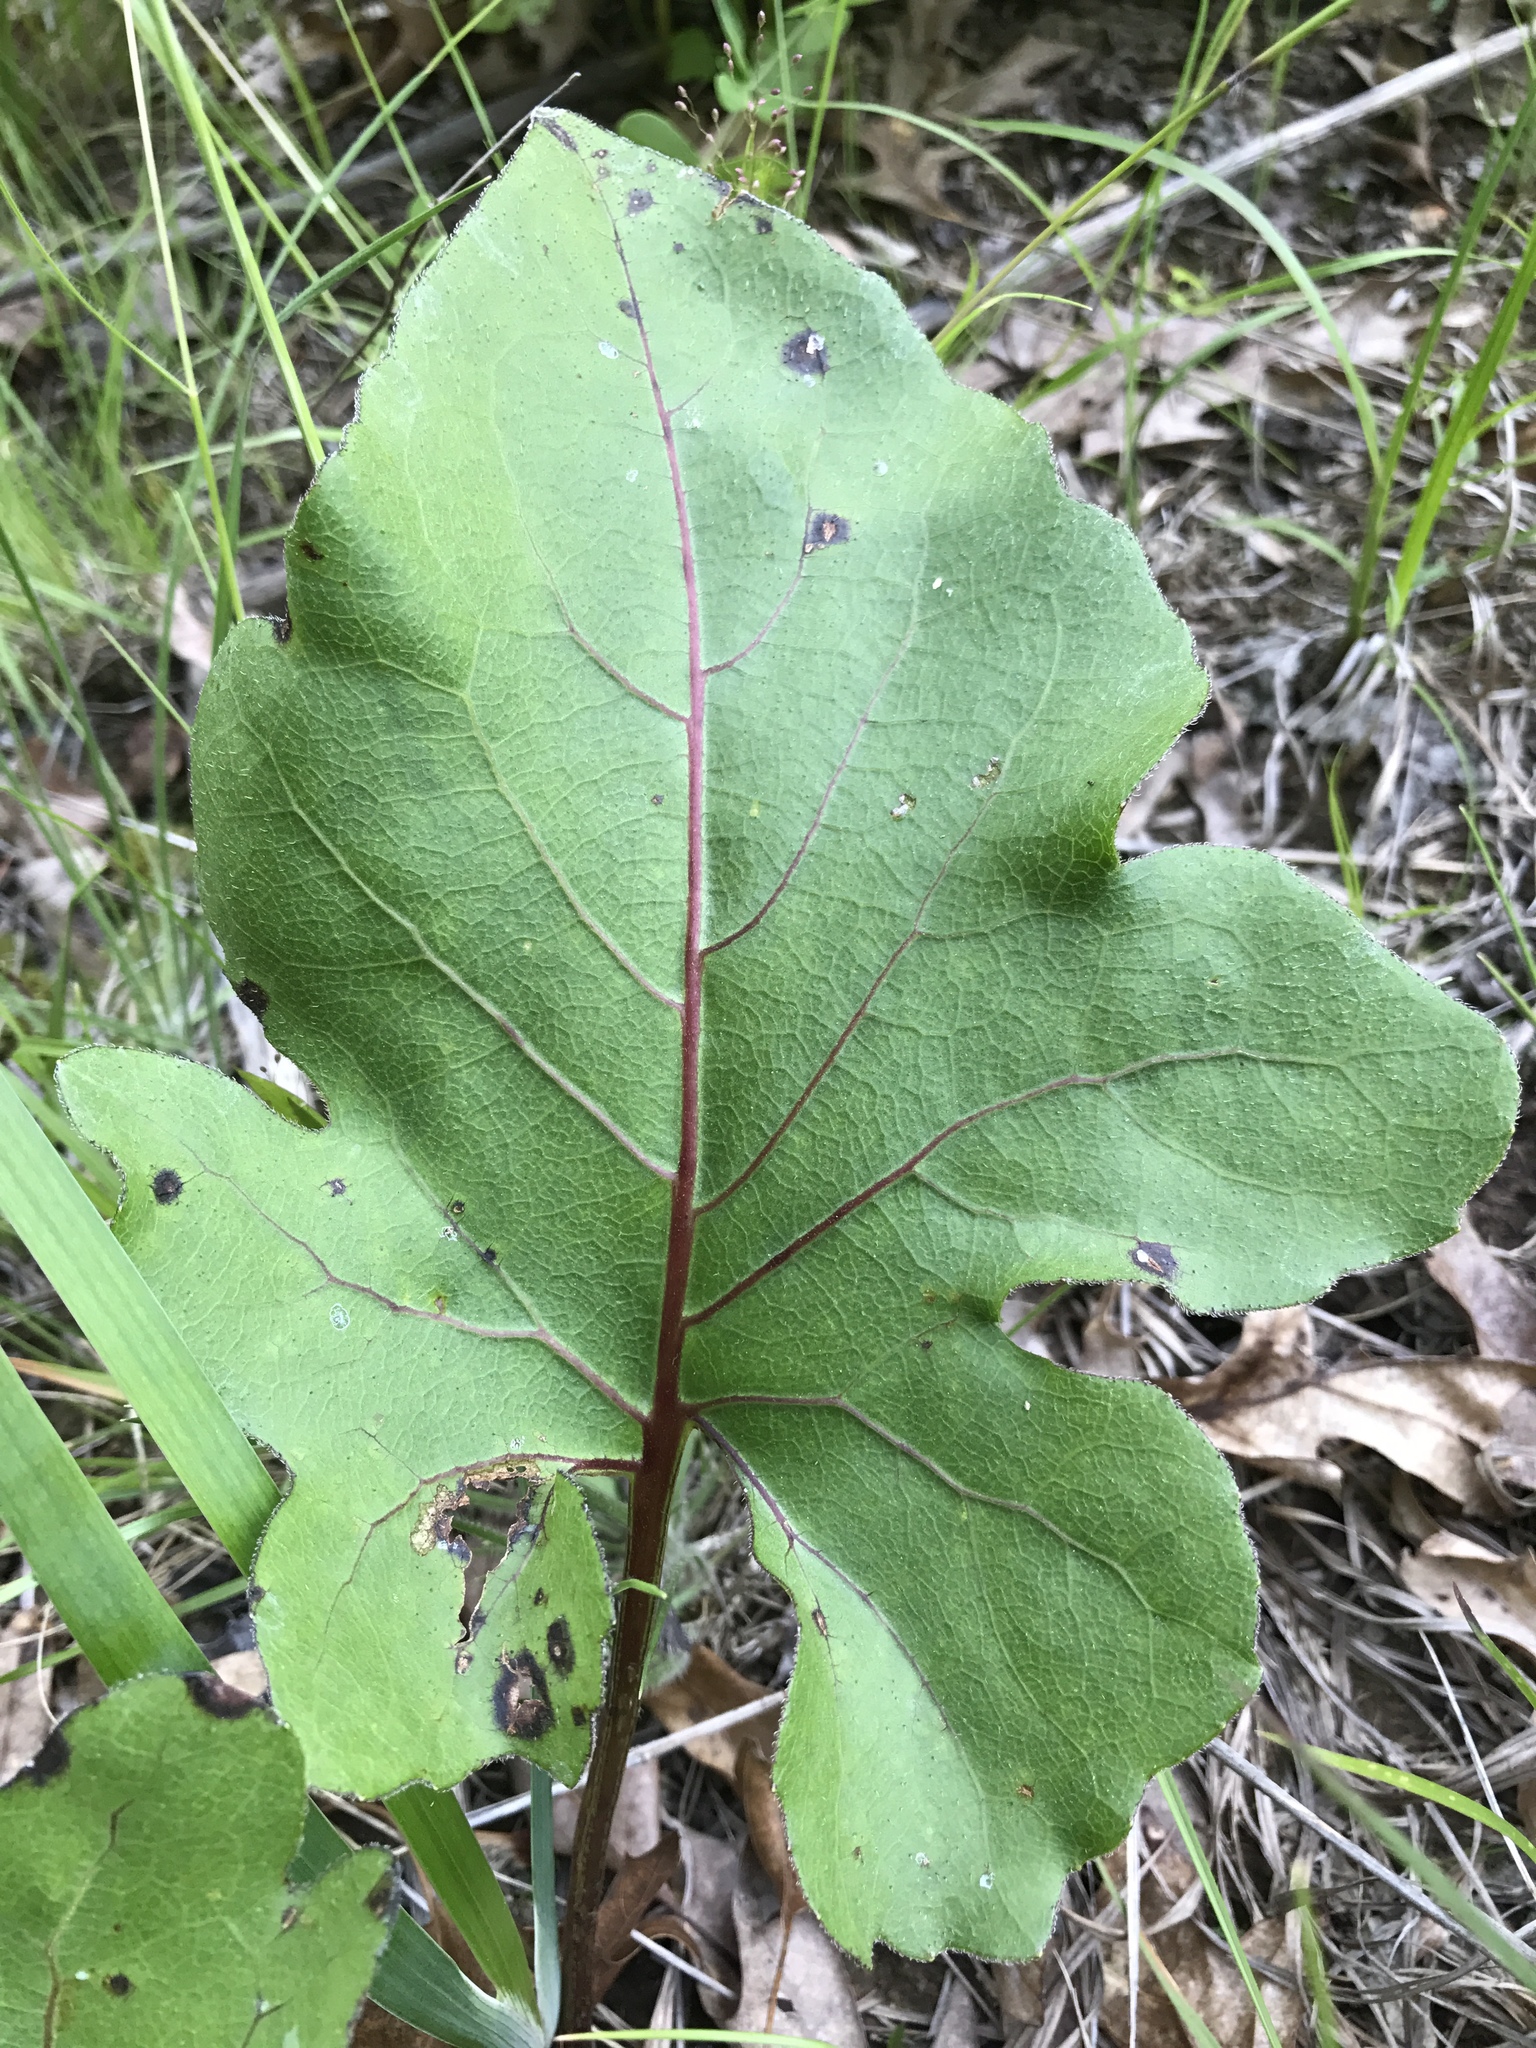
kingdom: Plantae
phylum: Tracheophyta
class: Magnoliopsida
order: Asterales
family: Asteraceae
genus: Silphium
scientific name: Silphium compositum
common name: Lesser basal-leaf rosinweed
